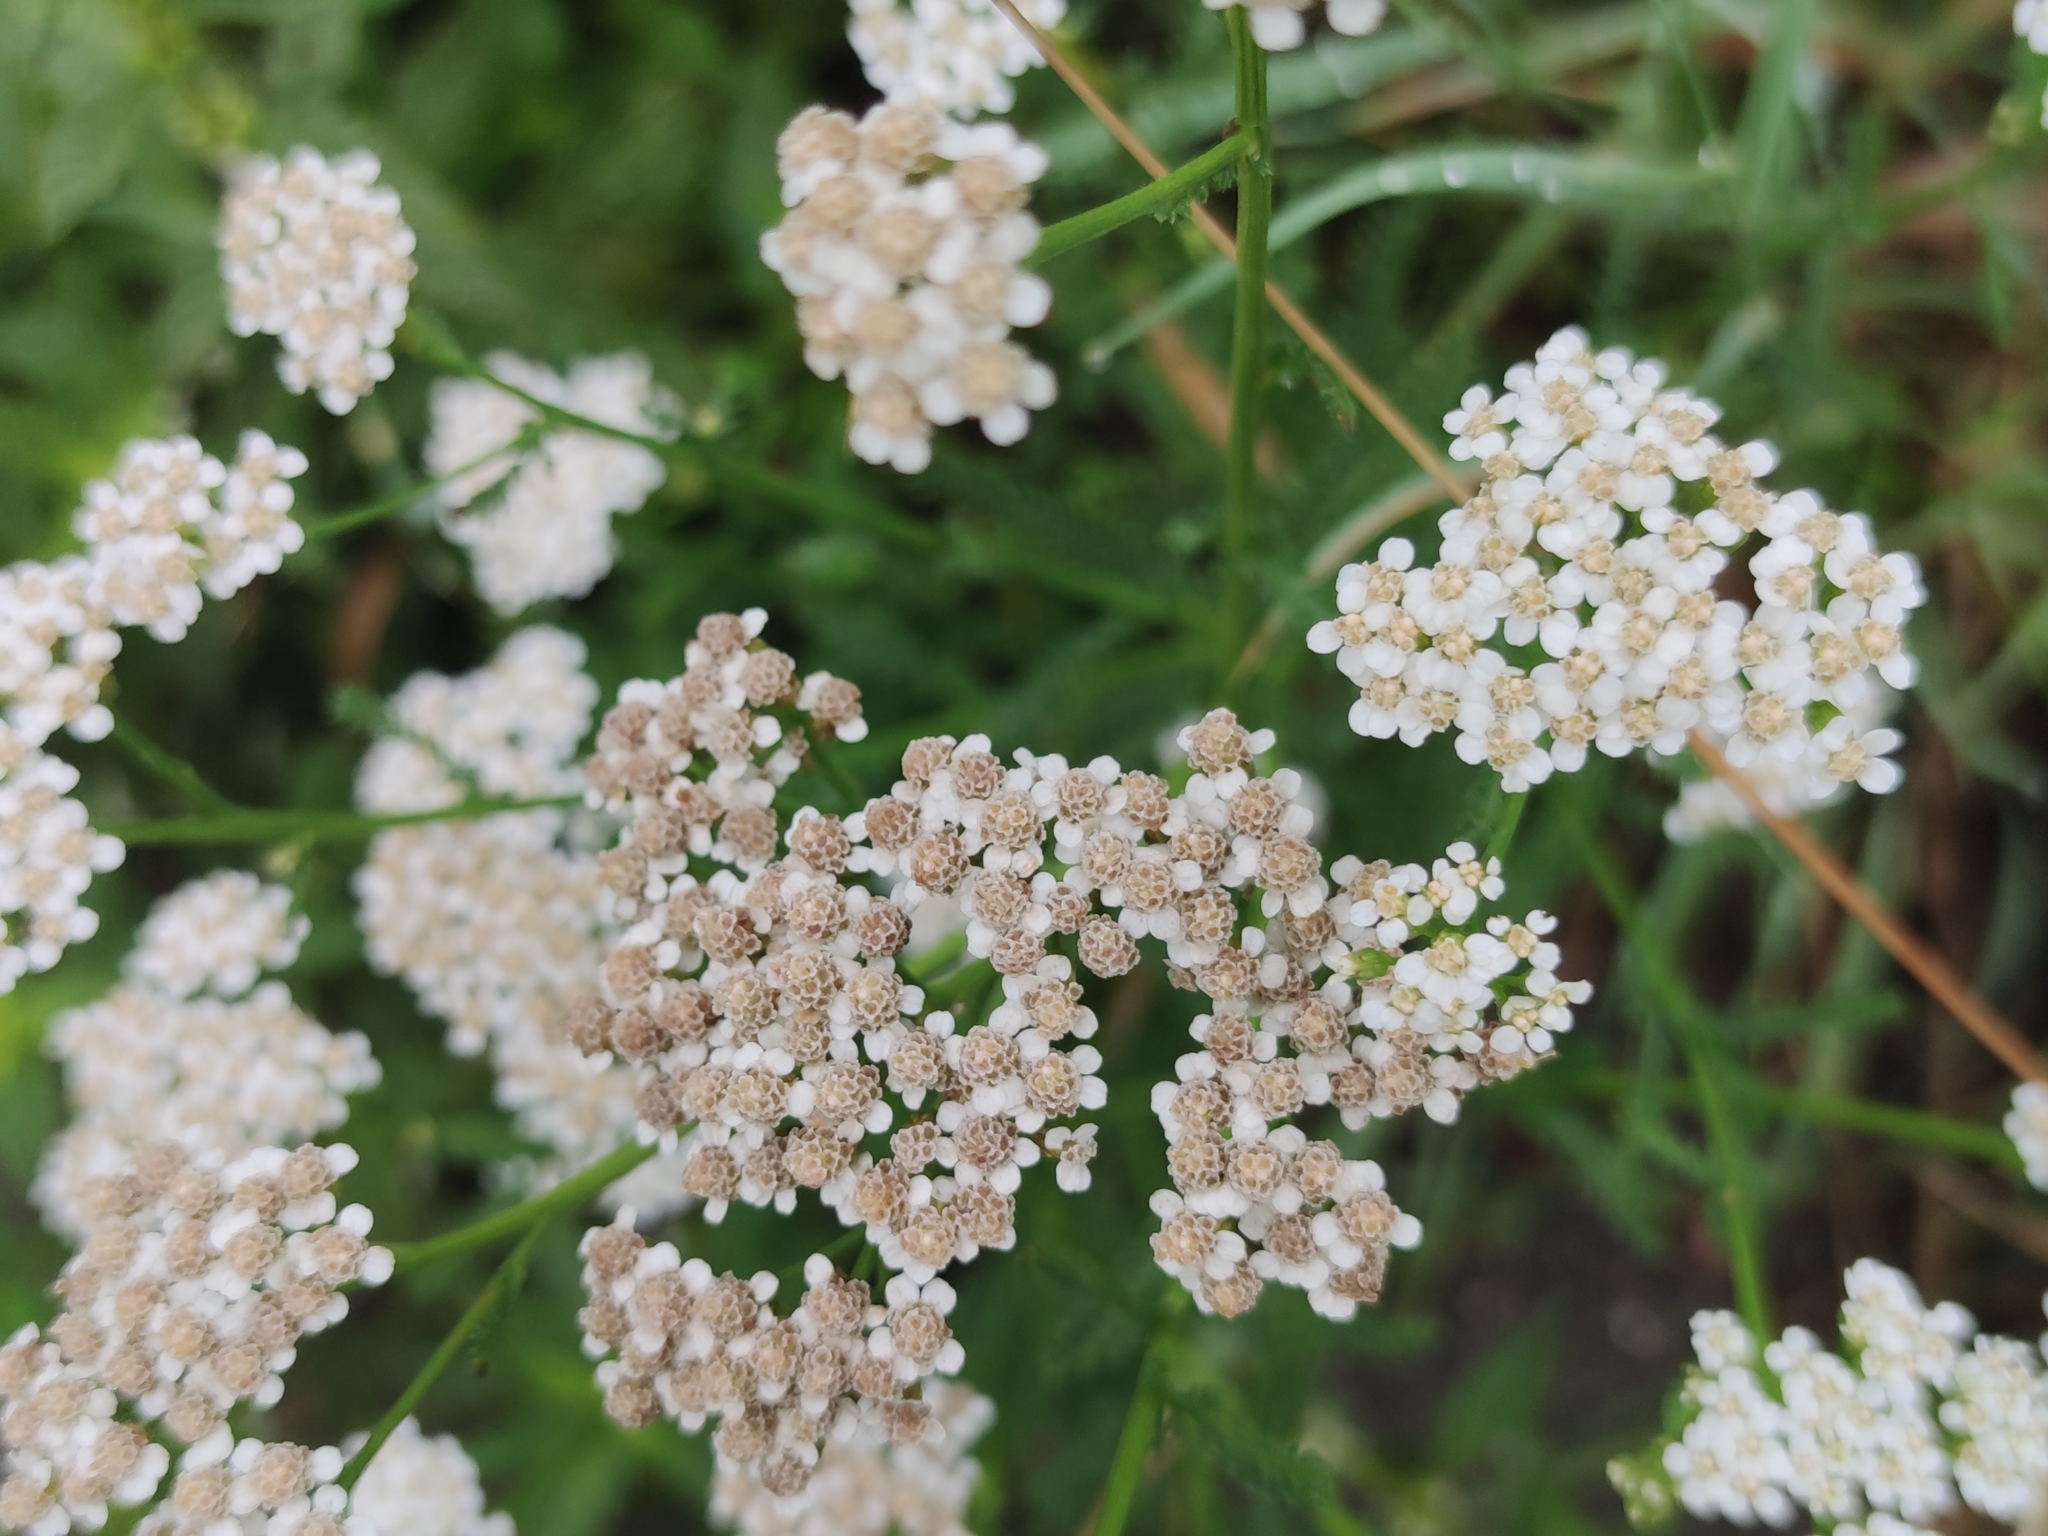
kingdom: Plantae
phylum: Tracheophyta
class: Magnoliopsida
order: Asterales
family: Asteraceae
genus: Achillea
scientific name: Achillea millefolium
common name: Yarrow
